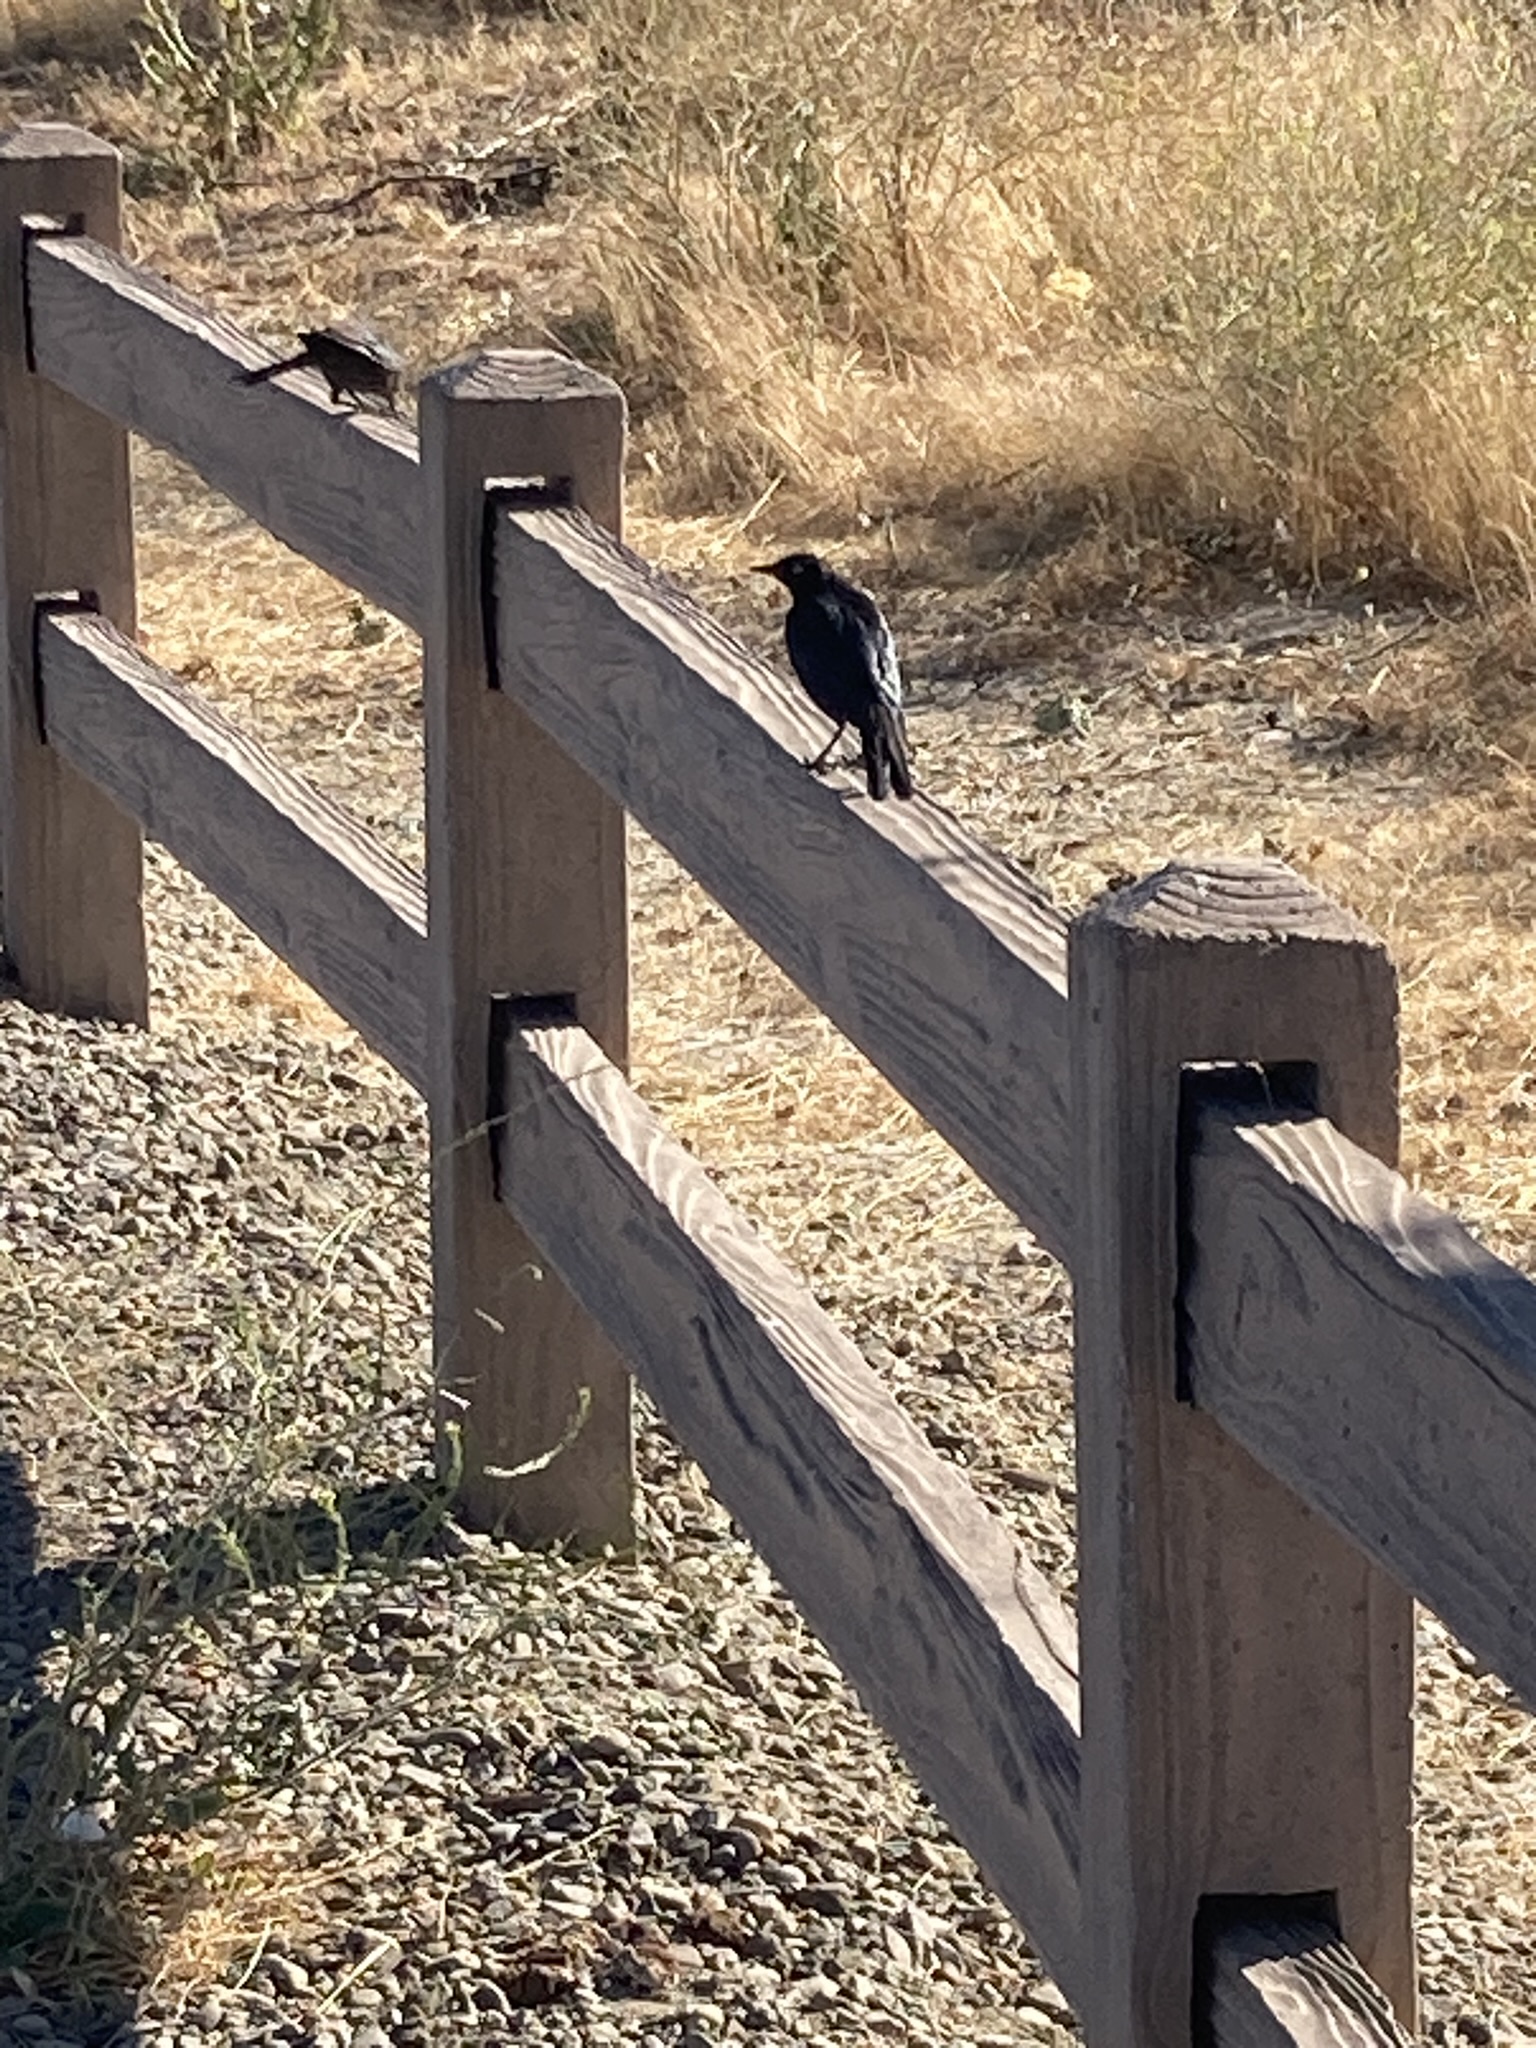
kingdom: Animalia
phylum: Chordata
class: Aves
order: Passeriformes
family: Icteridae
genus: Euphagus
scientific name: Euphagus cyanocephalus
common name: Brewer's blackbird
